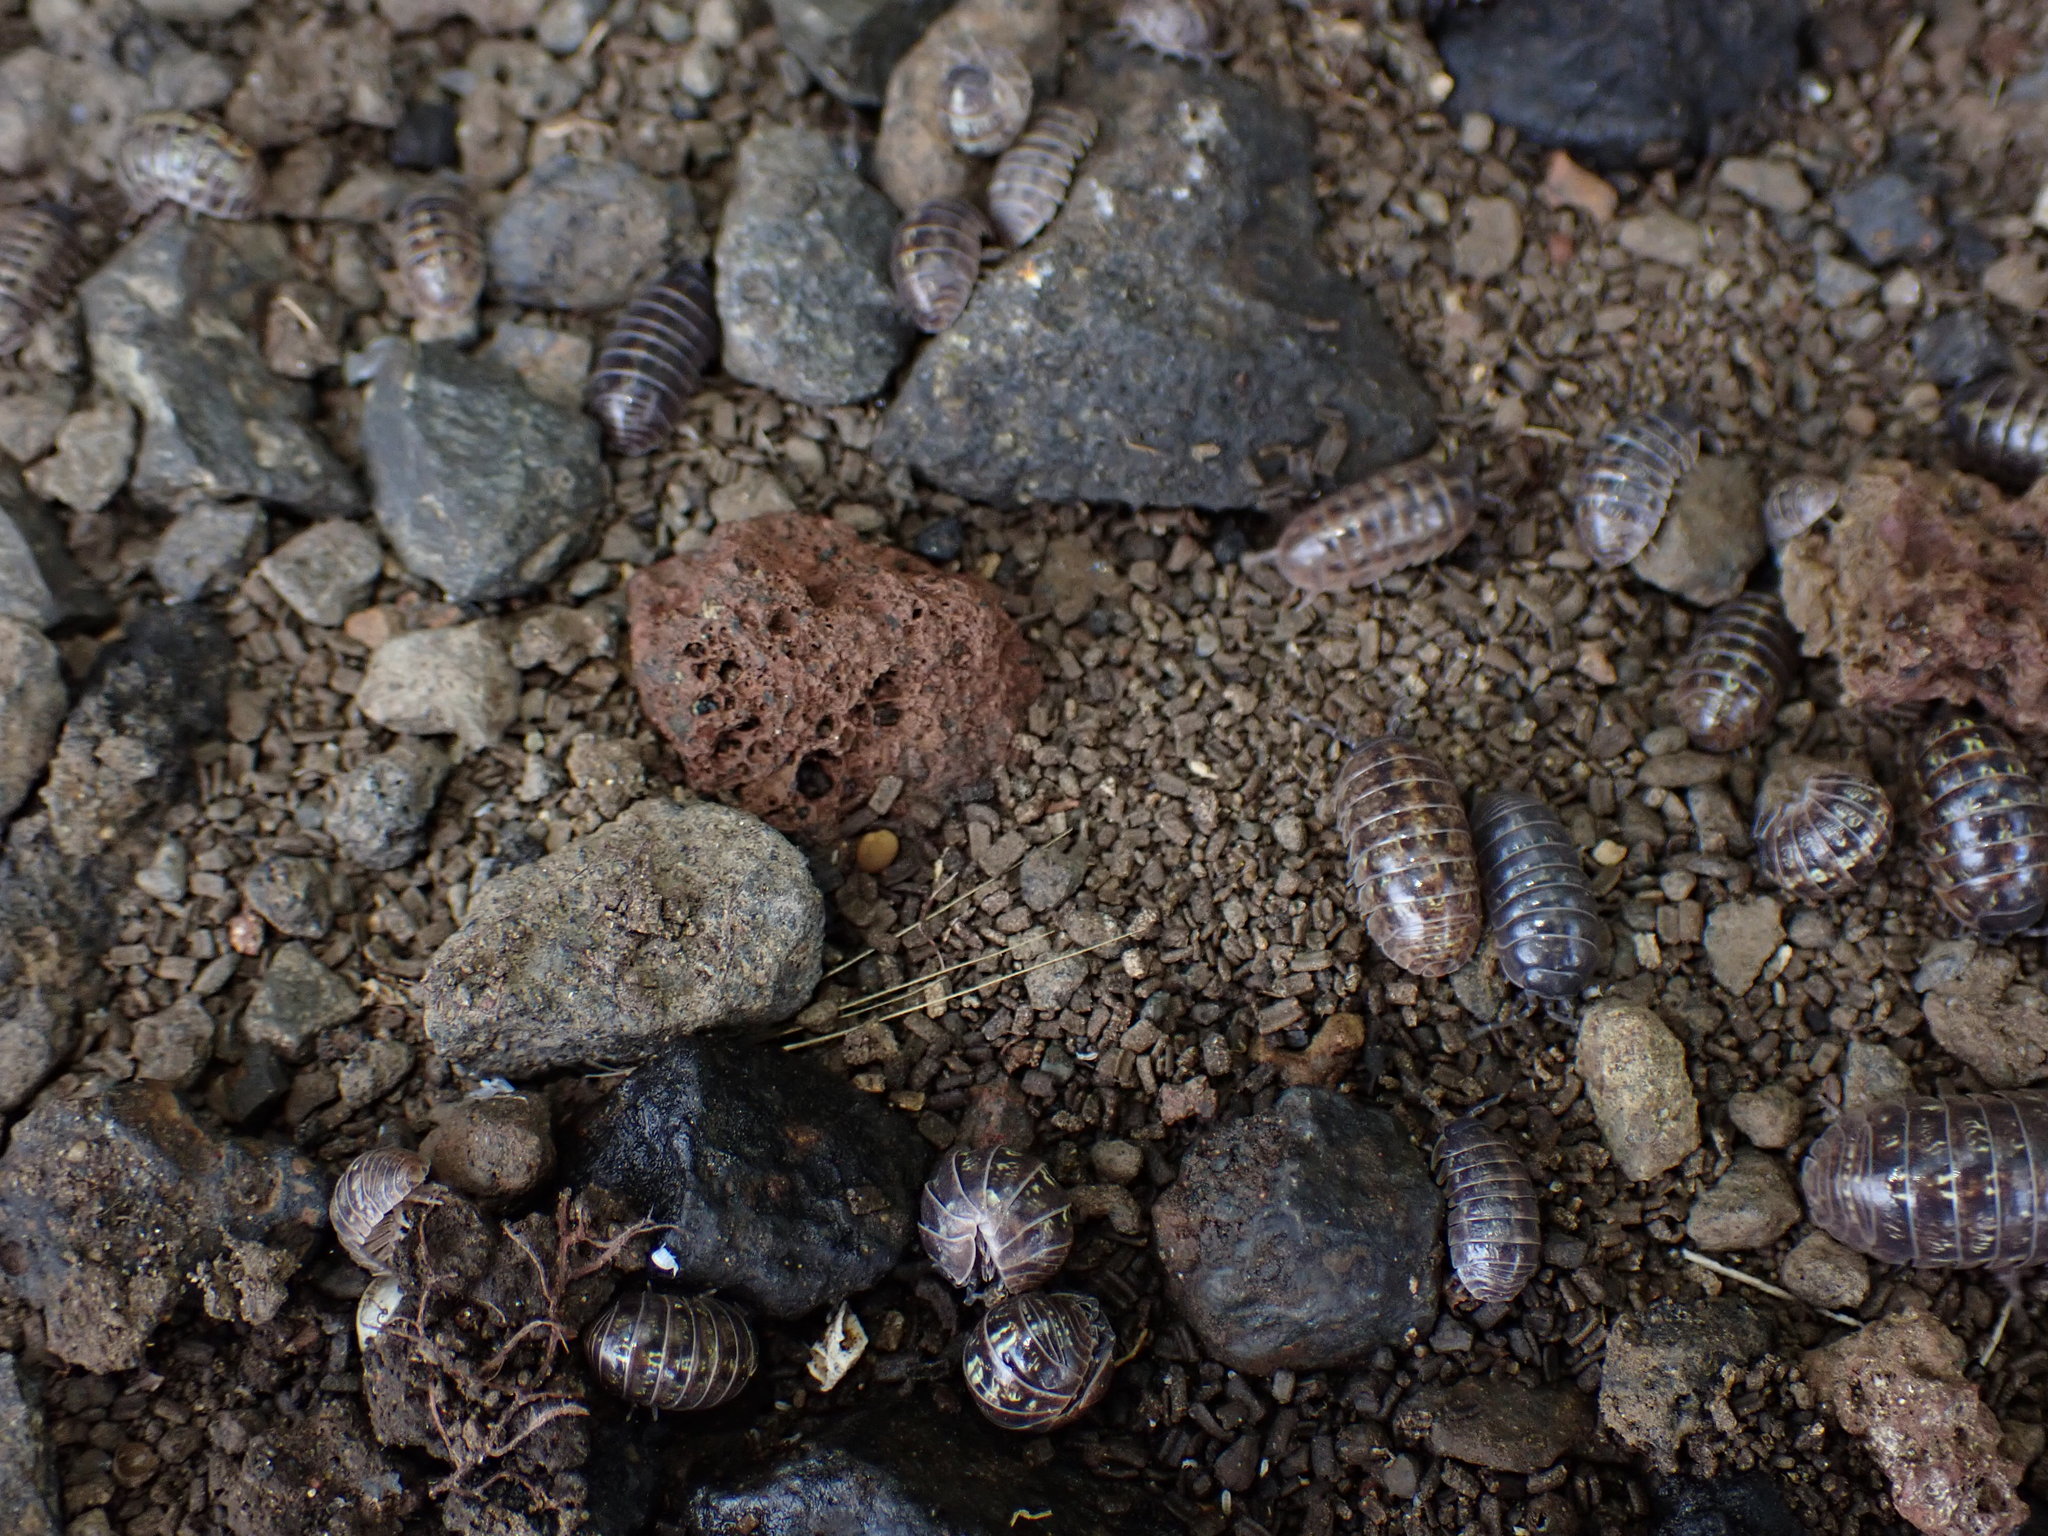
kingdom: Animalia
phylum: Arthropoda
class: Malacostraca
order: Isopoda
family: Armadillidiidae
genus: Armadillidium
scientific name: Armadillidium vulgare
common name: Common pill woodlouse
